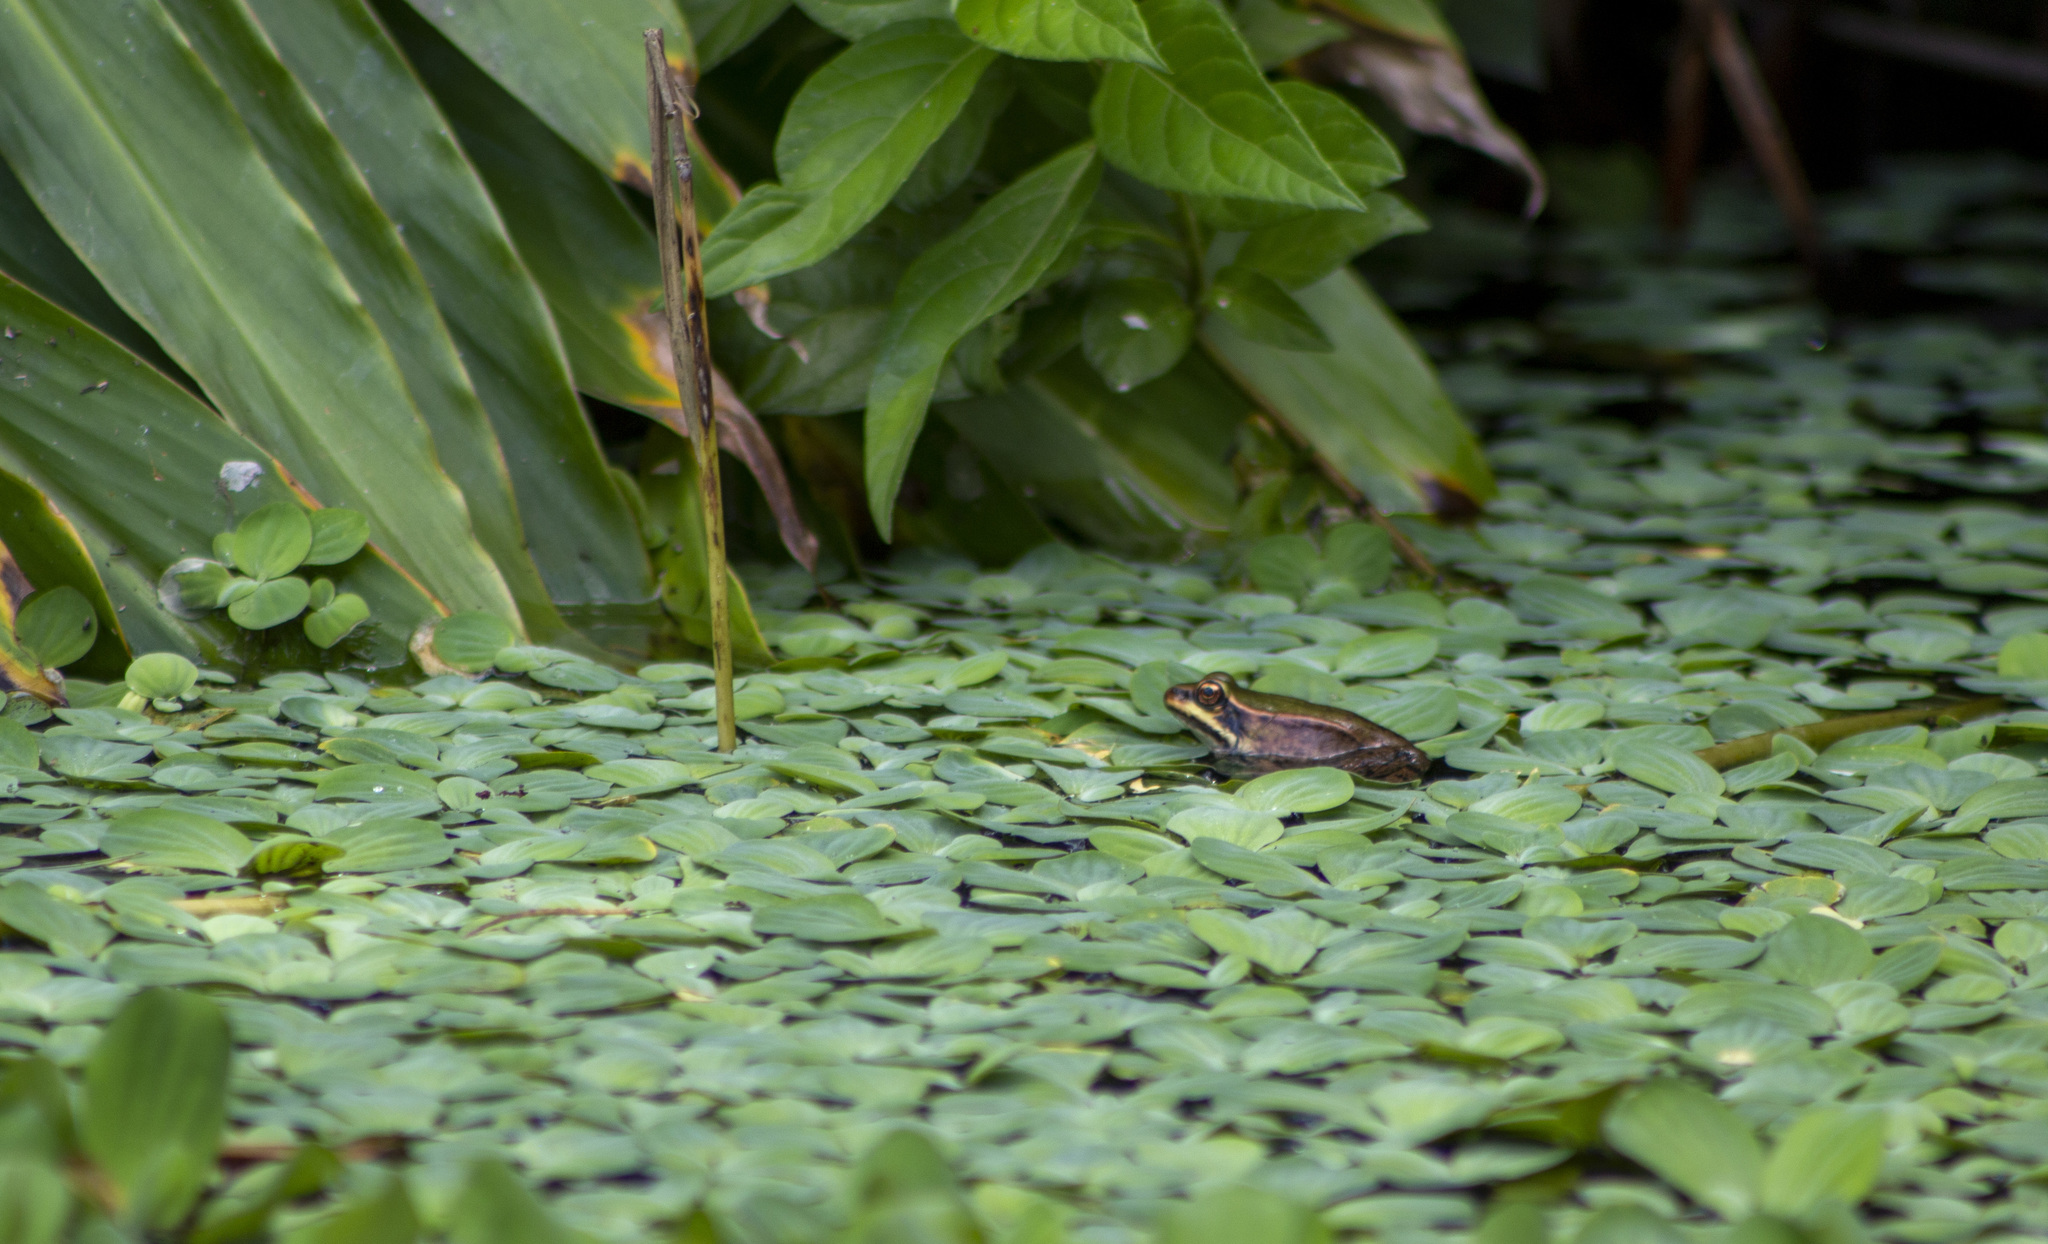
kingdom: Animalia
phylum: Chordata
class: Amphibia
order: Anura
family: Ranidae
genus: Lithobates
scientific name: Lithobates palmipes
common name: Amazon river frog
